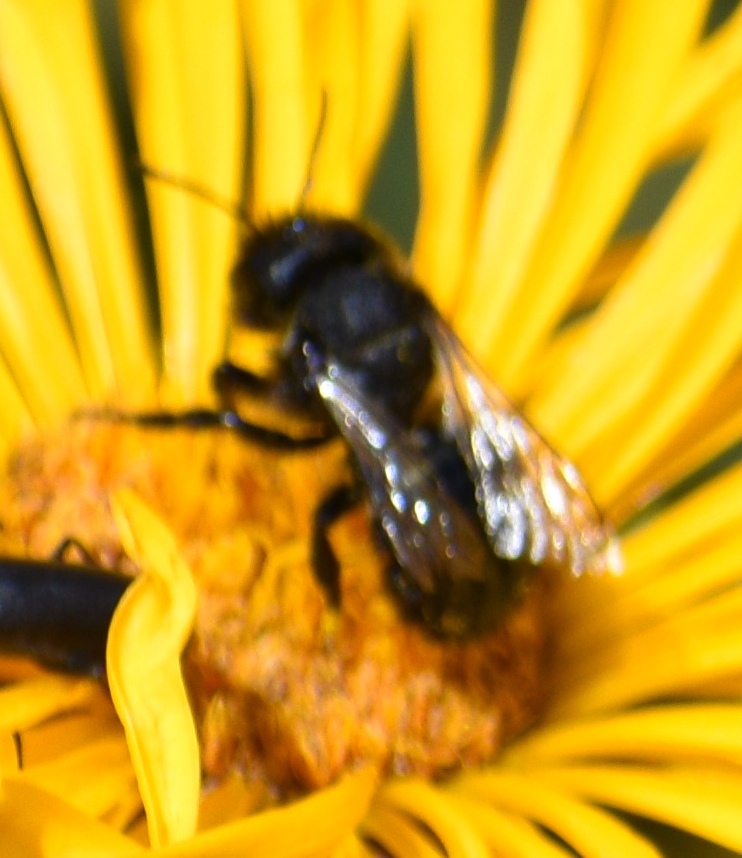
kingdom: Animalia
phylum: Arthropoda
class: Insecta
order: Hymenoptera
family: Megachilidae
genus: Osmia
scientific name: Osmia
